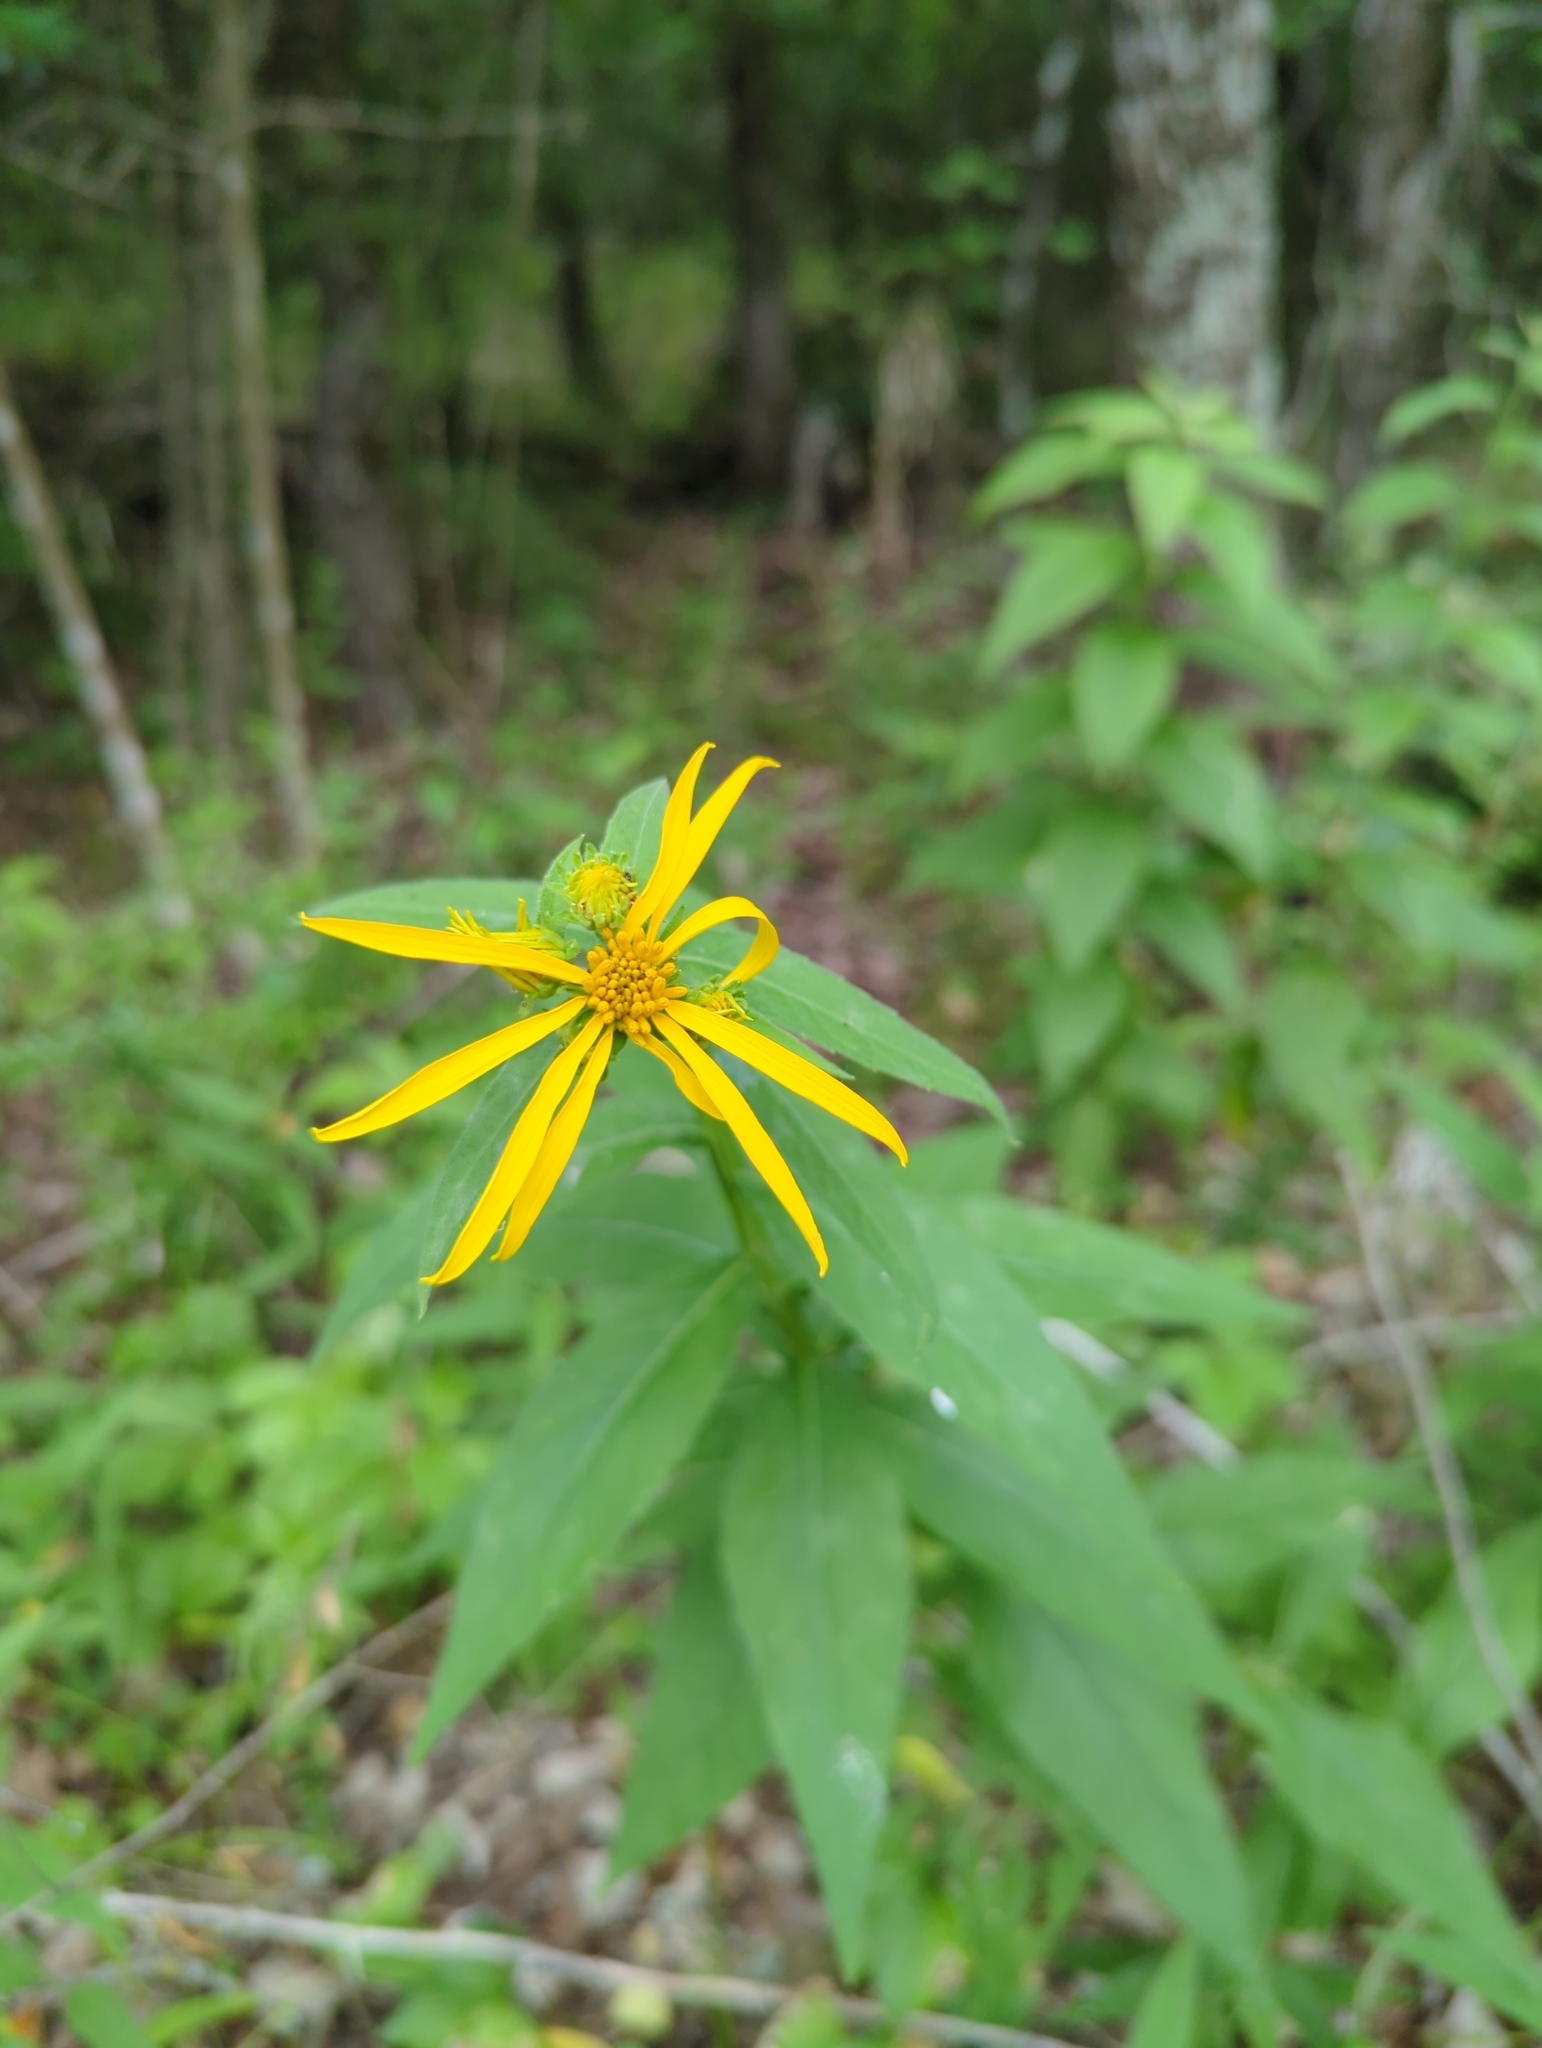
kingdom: Plantae
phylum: Tracheophyta
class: Magnoliopsida
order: Asterales
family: Asteraceae
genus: Verbesina
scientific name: Verbesina helianthoides
